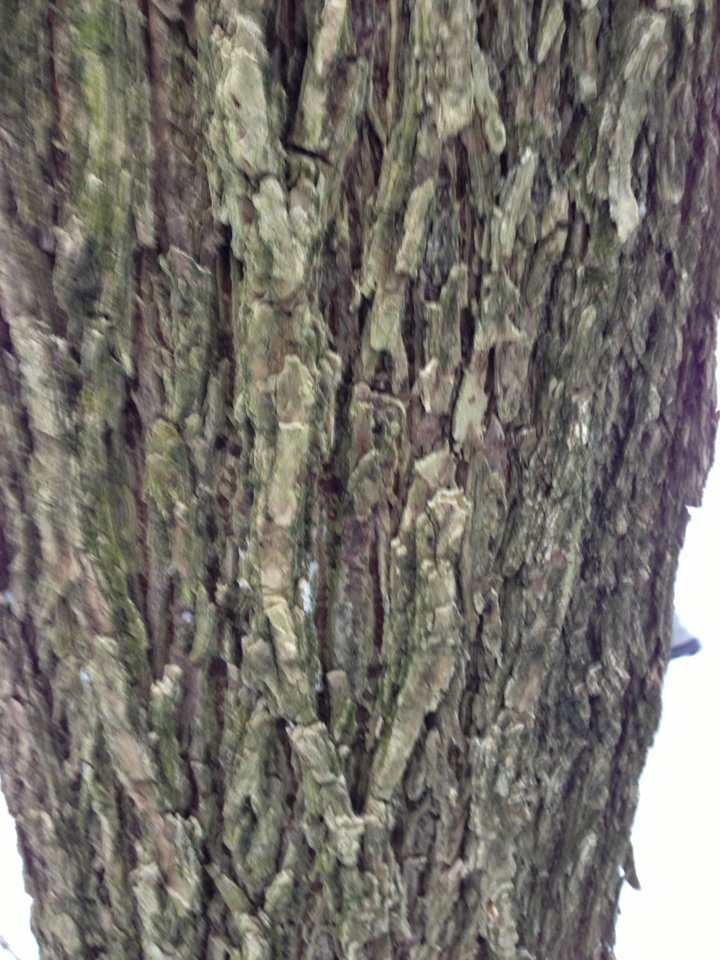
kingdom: Plantae
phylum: Tracheophyta
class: Magnoliopsida
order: Rosales
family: Ulmaceae
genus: Ulmus
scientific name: Ulmus americana
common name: American elm
